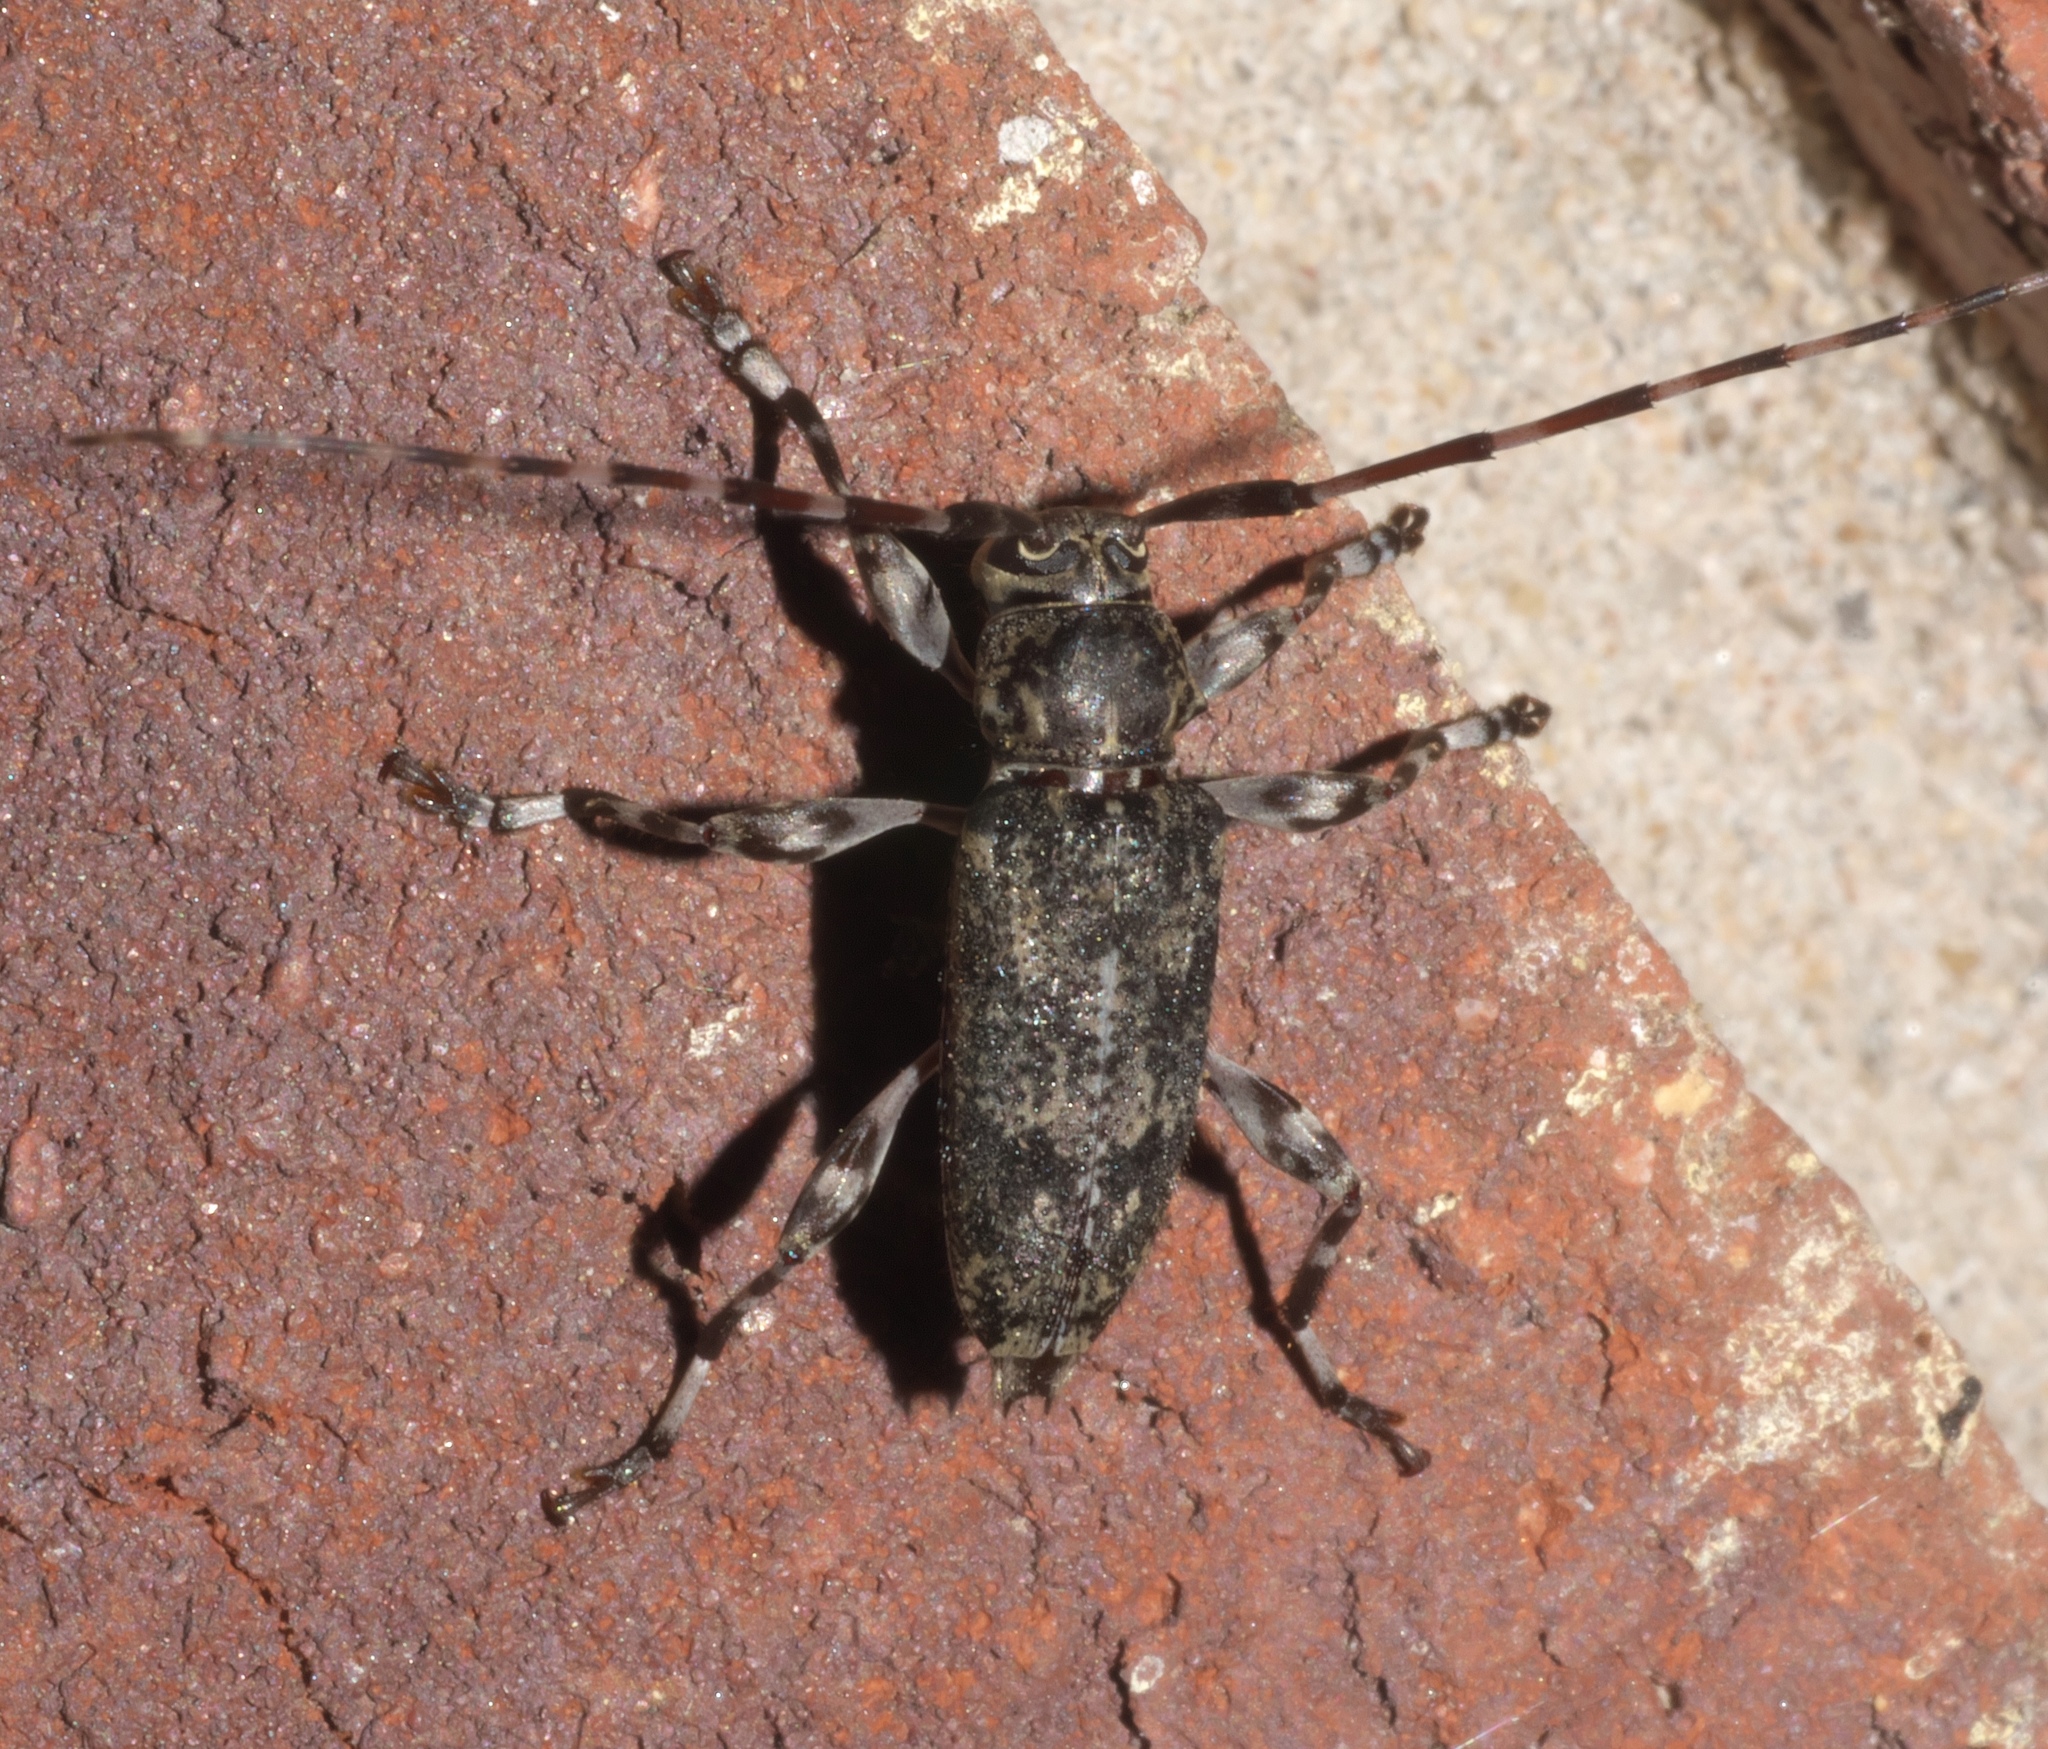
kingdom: Animalia
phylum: Arthropoda
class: Insecta
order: Coleoptera
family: Cerambycidae
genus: Graphisurus
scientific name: Graphisurus fasciatus
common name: Banded graphisurus
